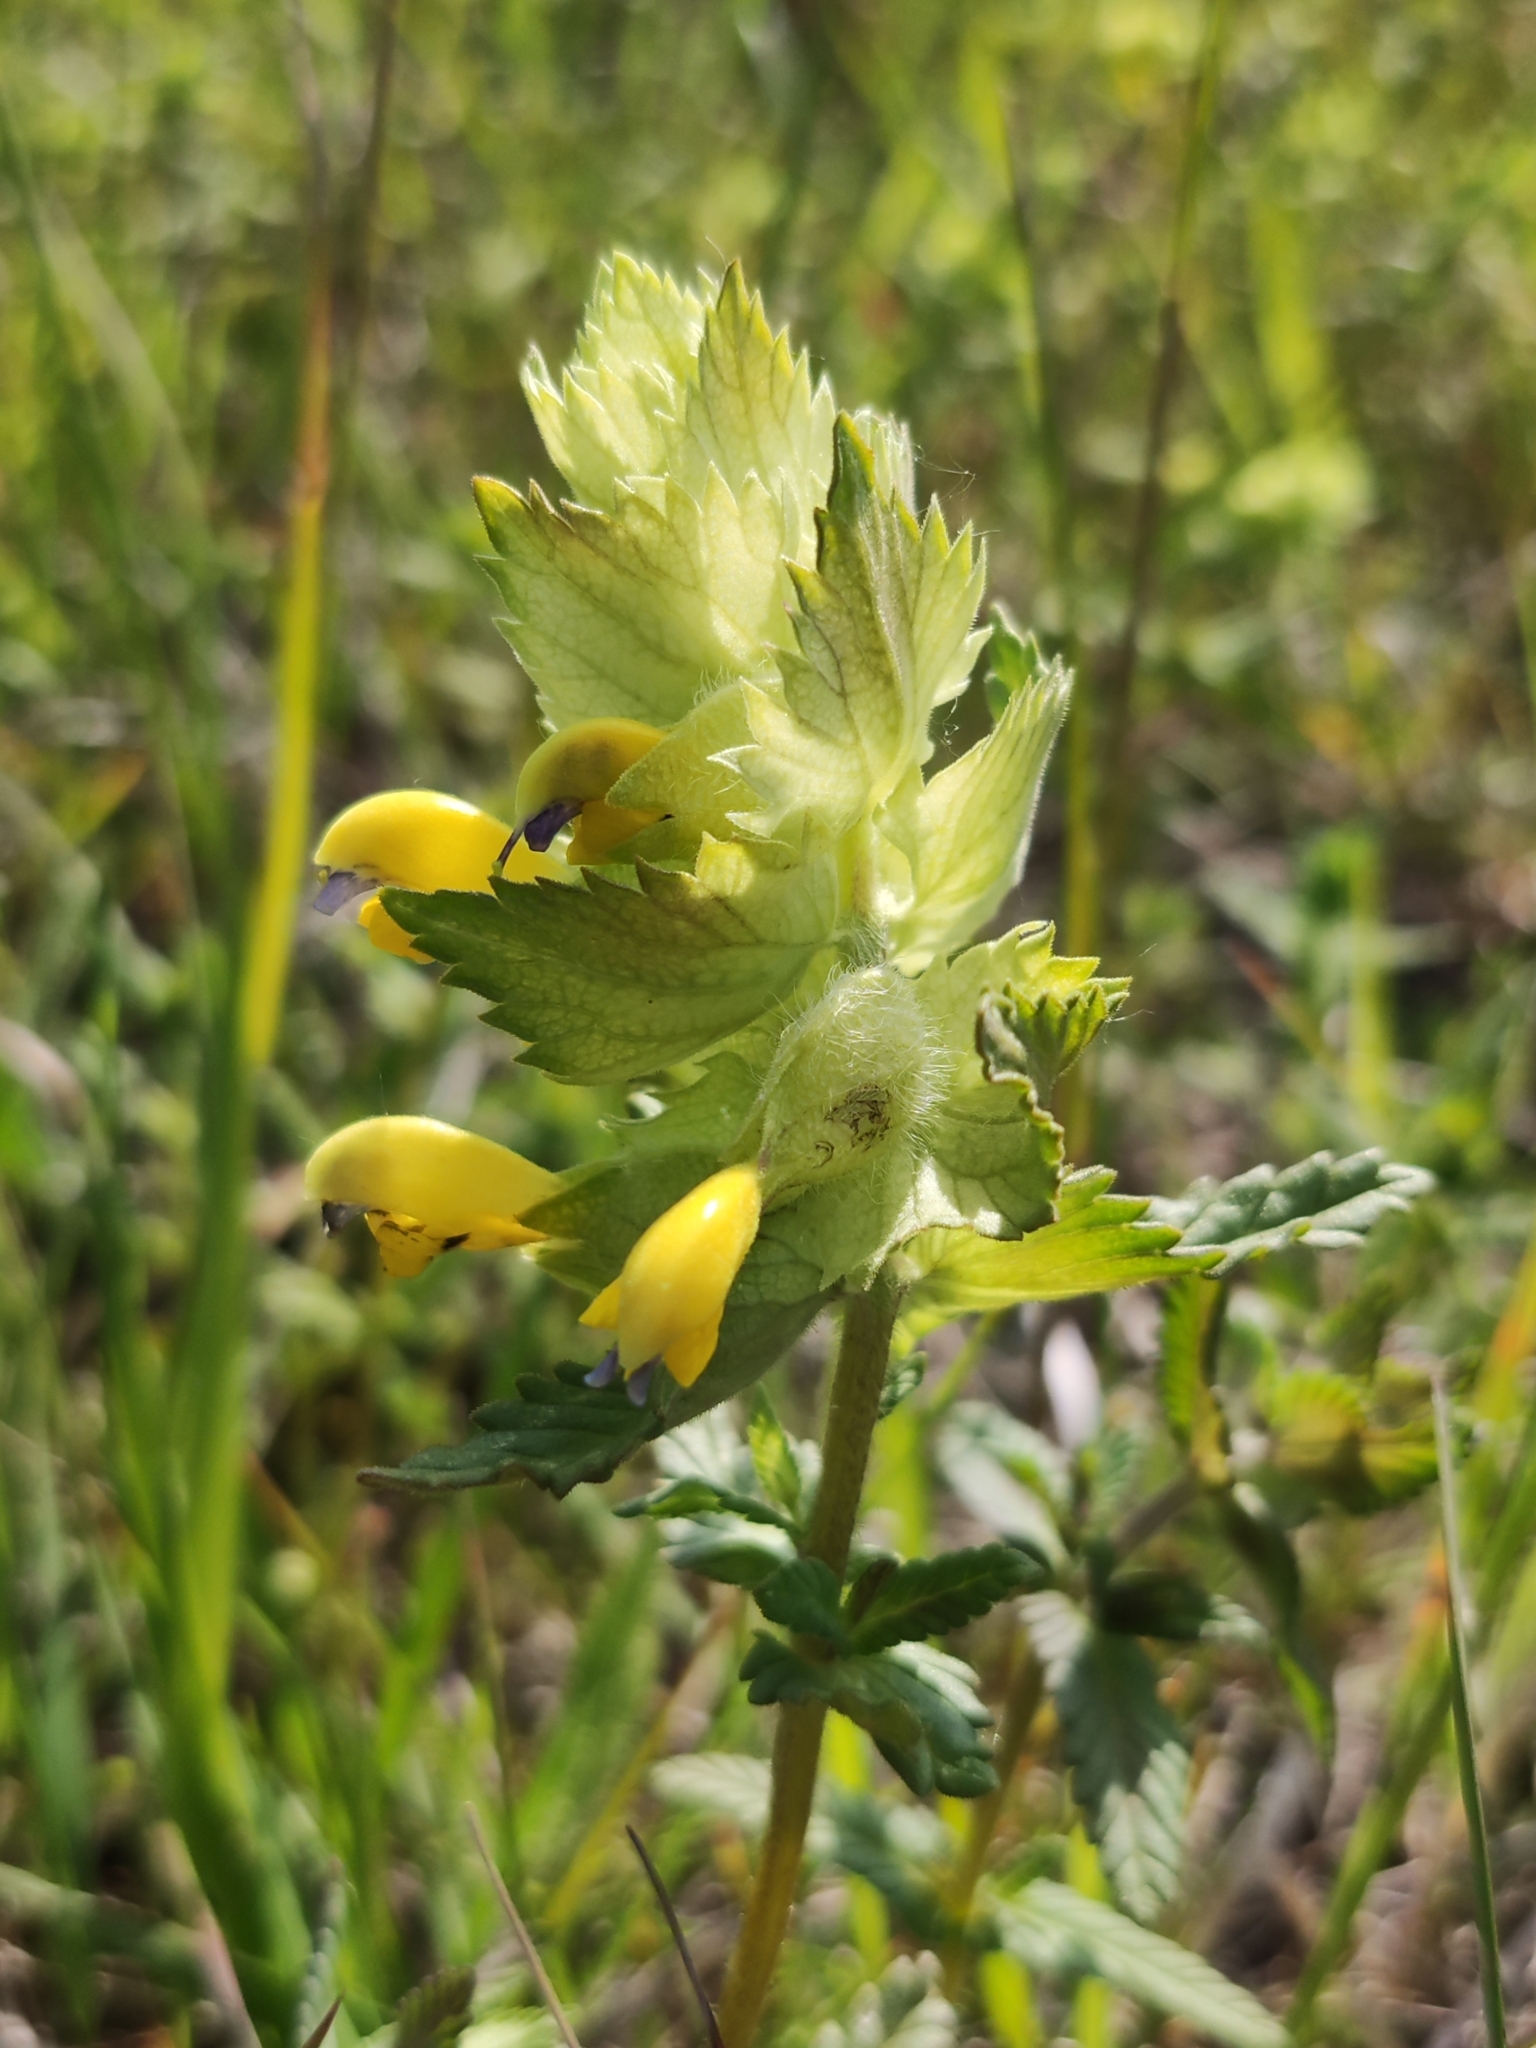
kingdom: Plantae
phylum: Tracheophyta
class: Magnoliopsida
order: Lamiales
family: Orobanchaceae
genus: Rhinanthus
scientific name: Rhinanthus alectorolophus
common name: Greater yellow-rattle
